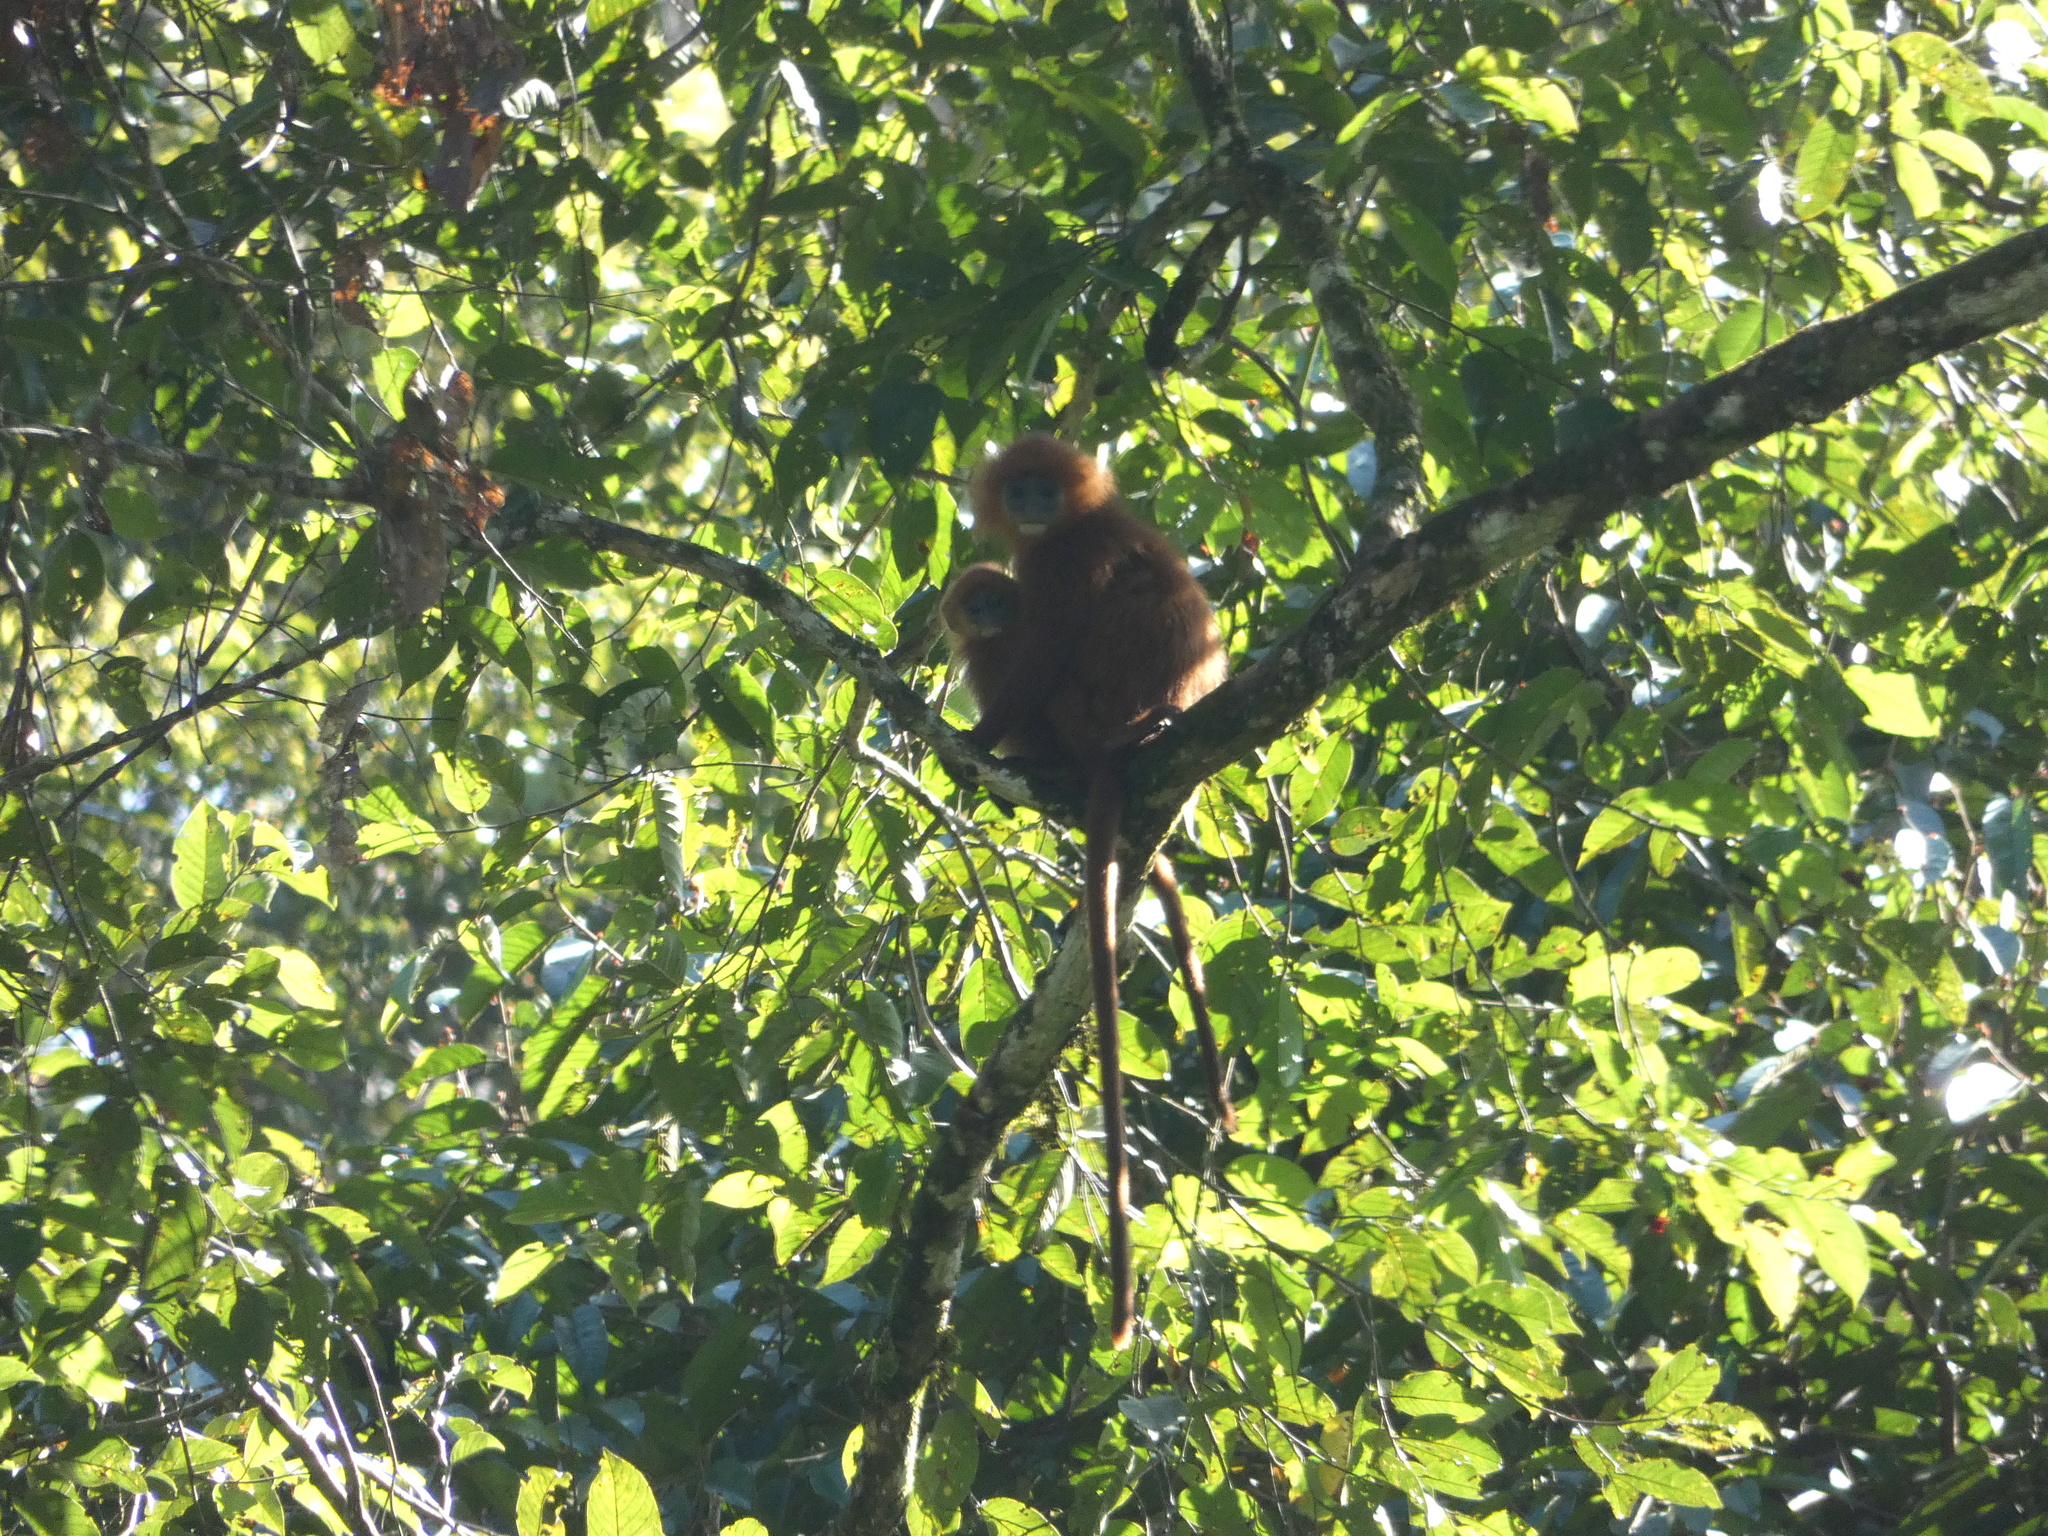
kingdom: Animalia
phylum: Chordata
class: Mammalia
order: Primates
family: Cercopithecidae
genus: Presbytis
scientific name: Presbytis rubicunda
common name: Maroon leaf monkey
